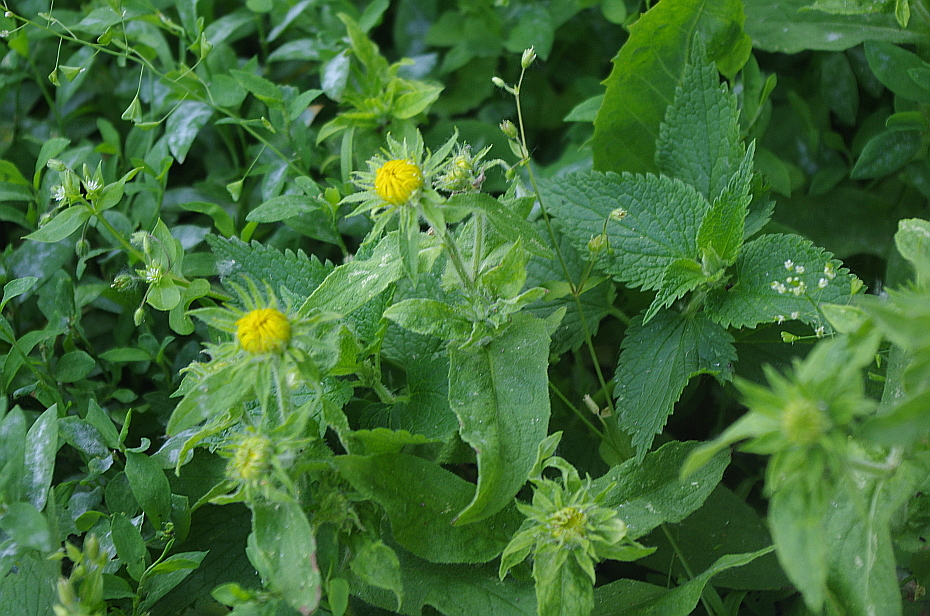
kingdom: Plantae
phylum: Tracheophyta
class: Magnoliopsida
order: Asterales
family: Asteraceae
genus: Pentanema
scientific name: Pentanema britannicum
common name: British elecampane
